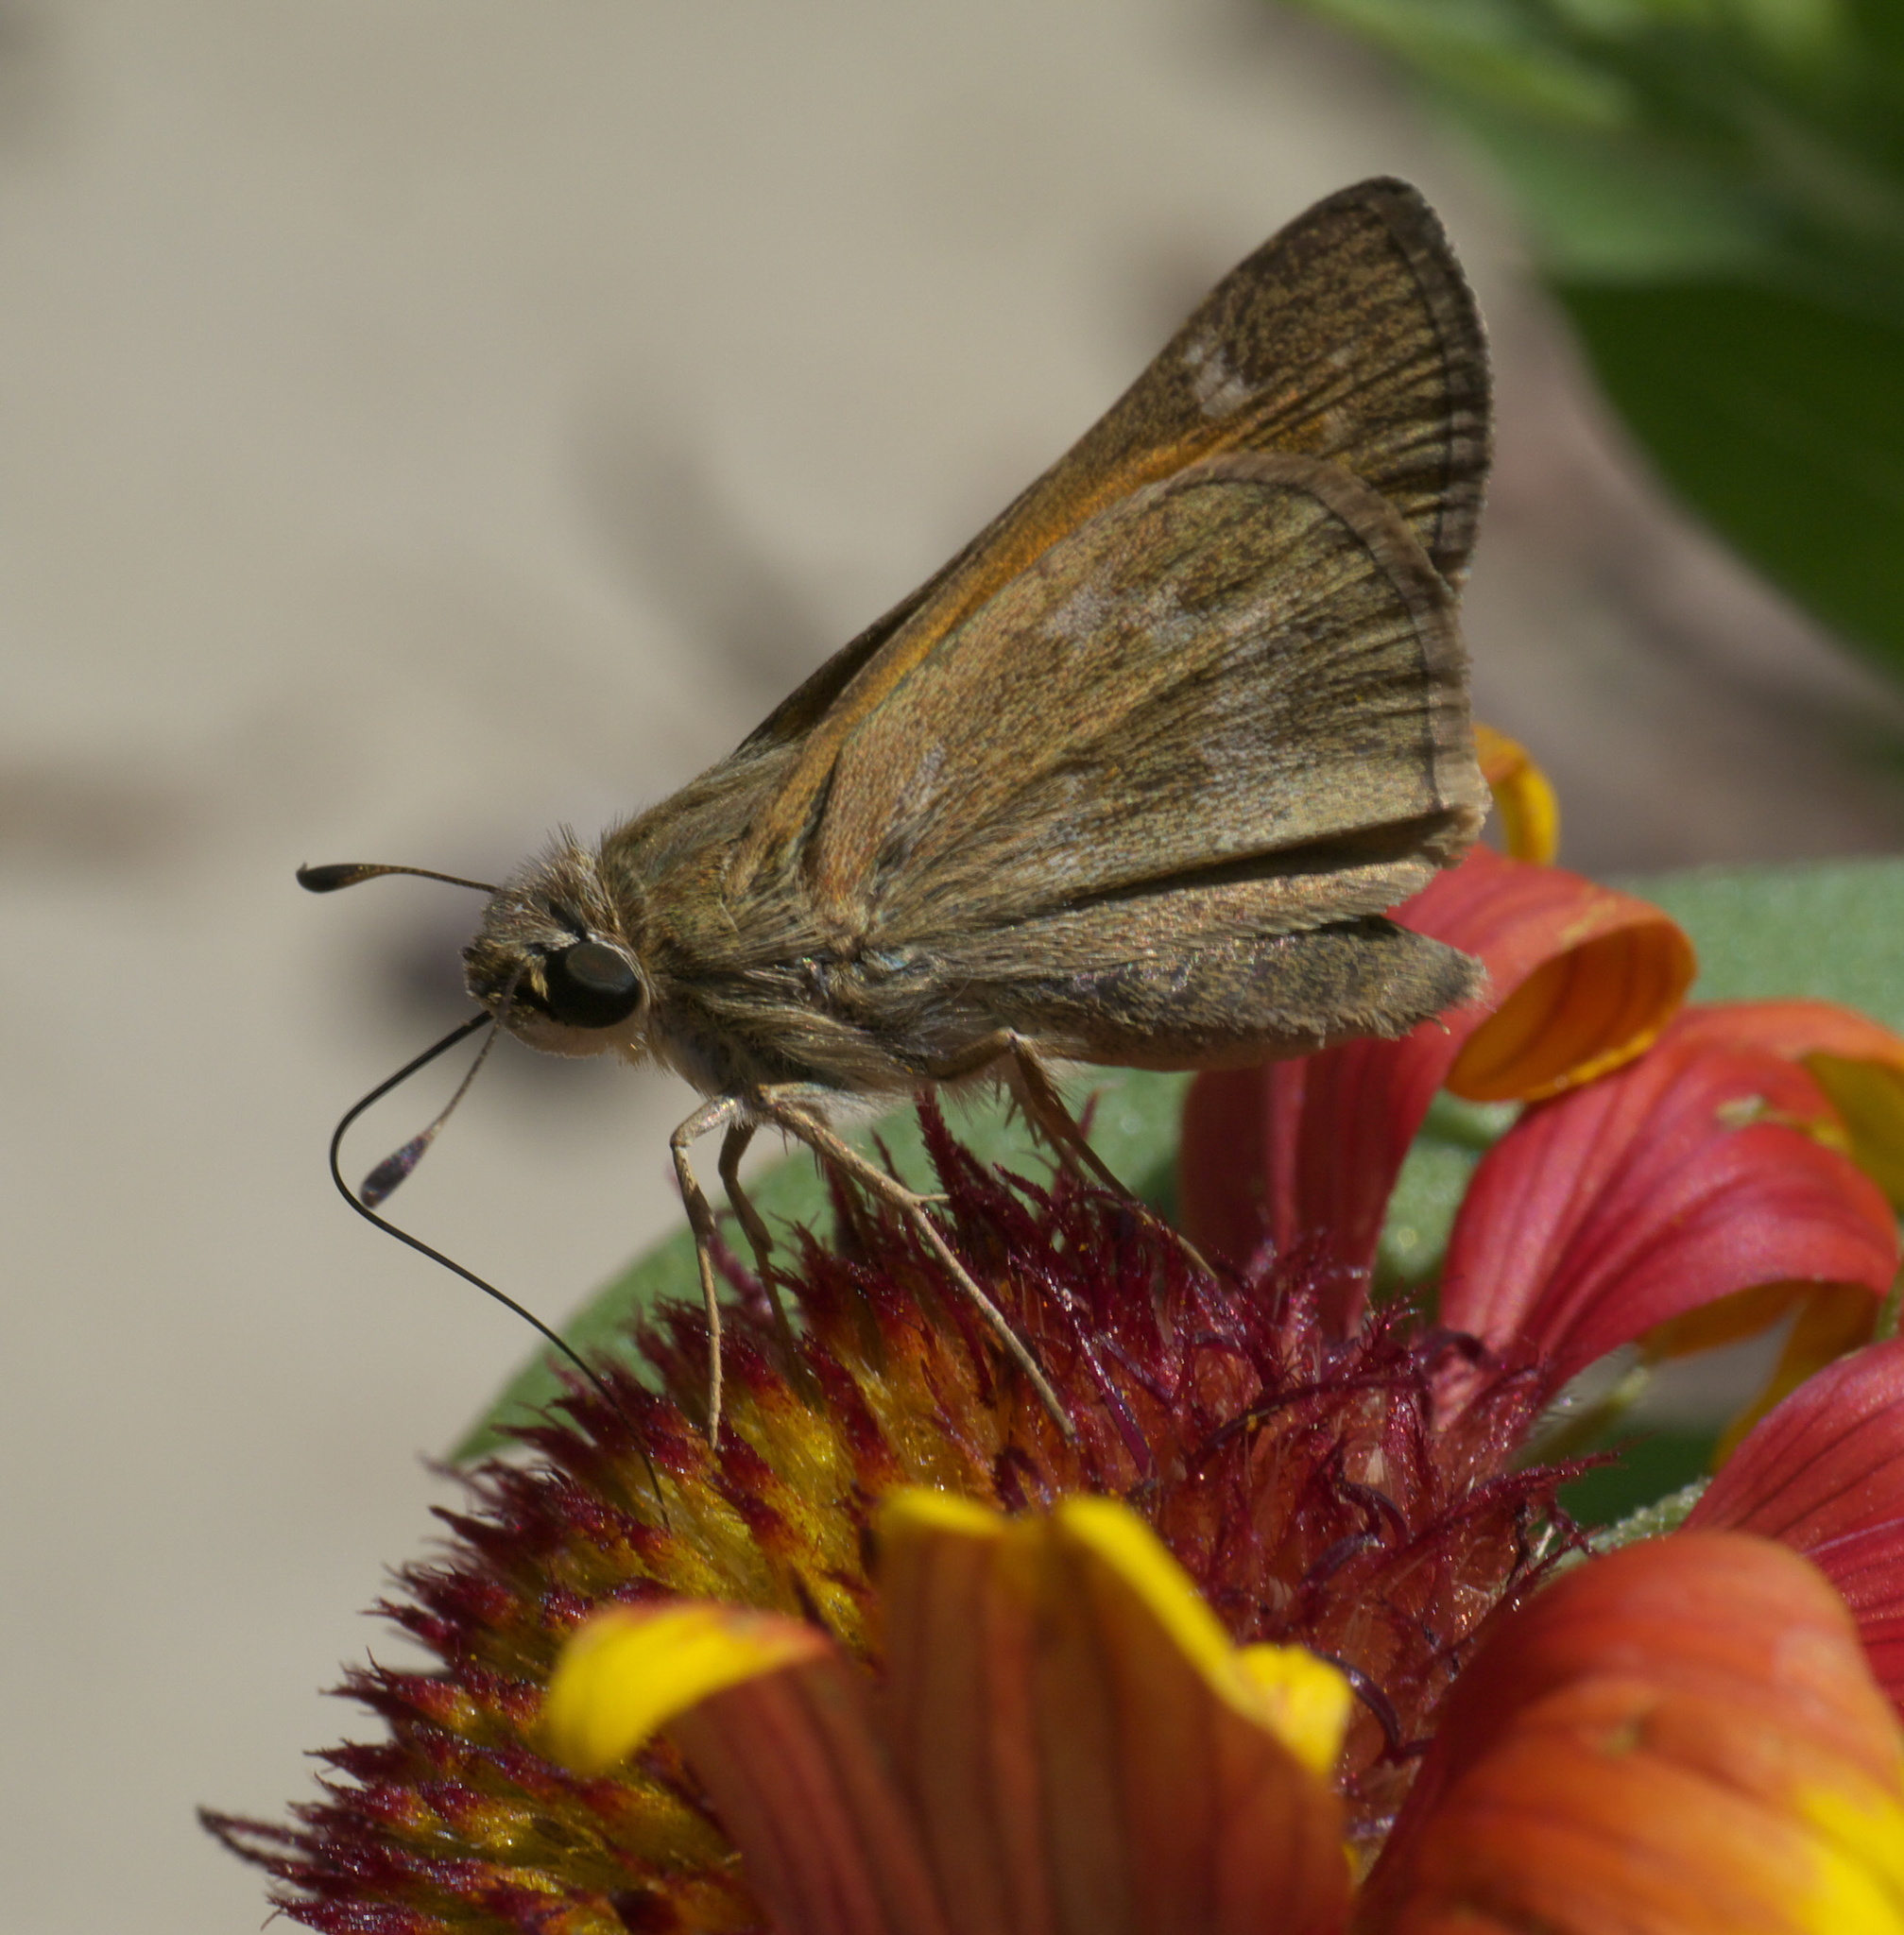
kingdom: Animalia
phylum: Arthropoda
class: Insecta
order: Lepidoptera
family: Hesperiidae
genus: Atalopedes
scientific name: Atalopedes
